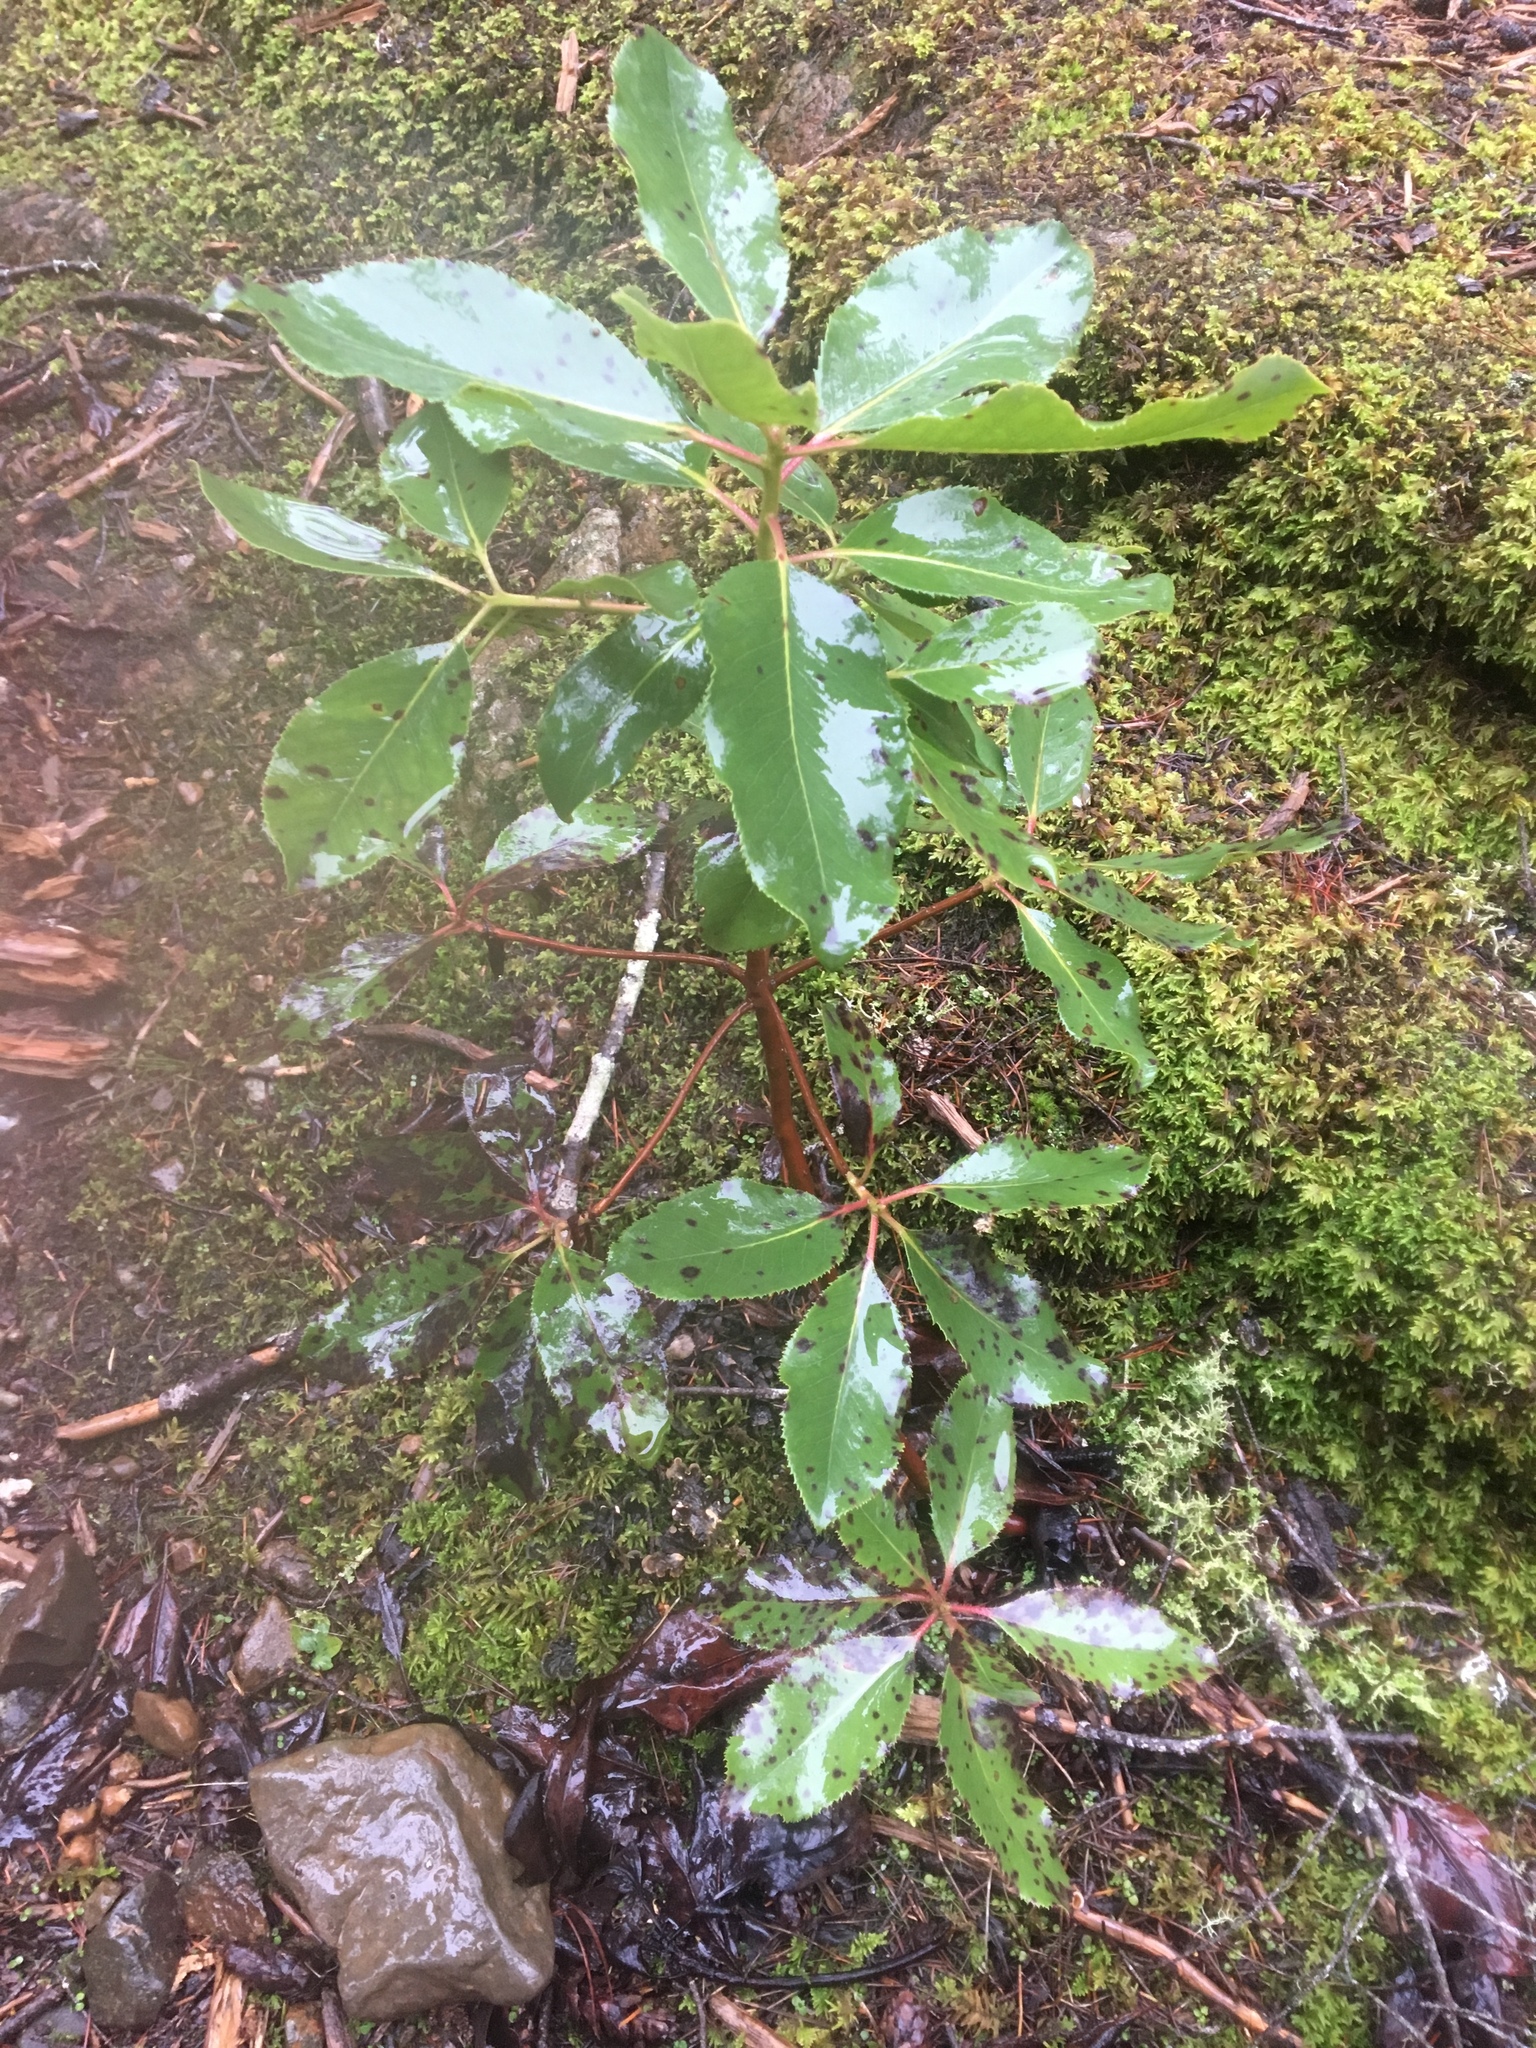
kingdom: Plantae
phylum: Tracheophyta
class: Magnoliopsida
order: Ericales
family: Ericaceae
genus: Arbutus
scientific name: Arbutus menziesii
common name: Pacific madrone
